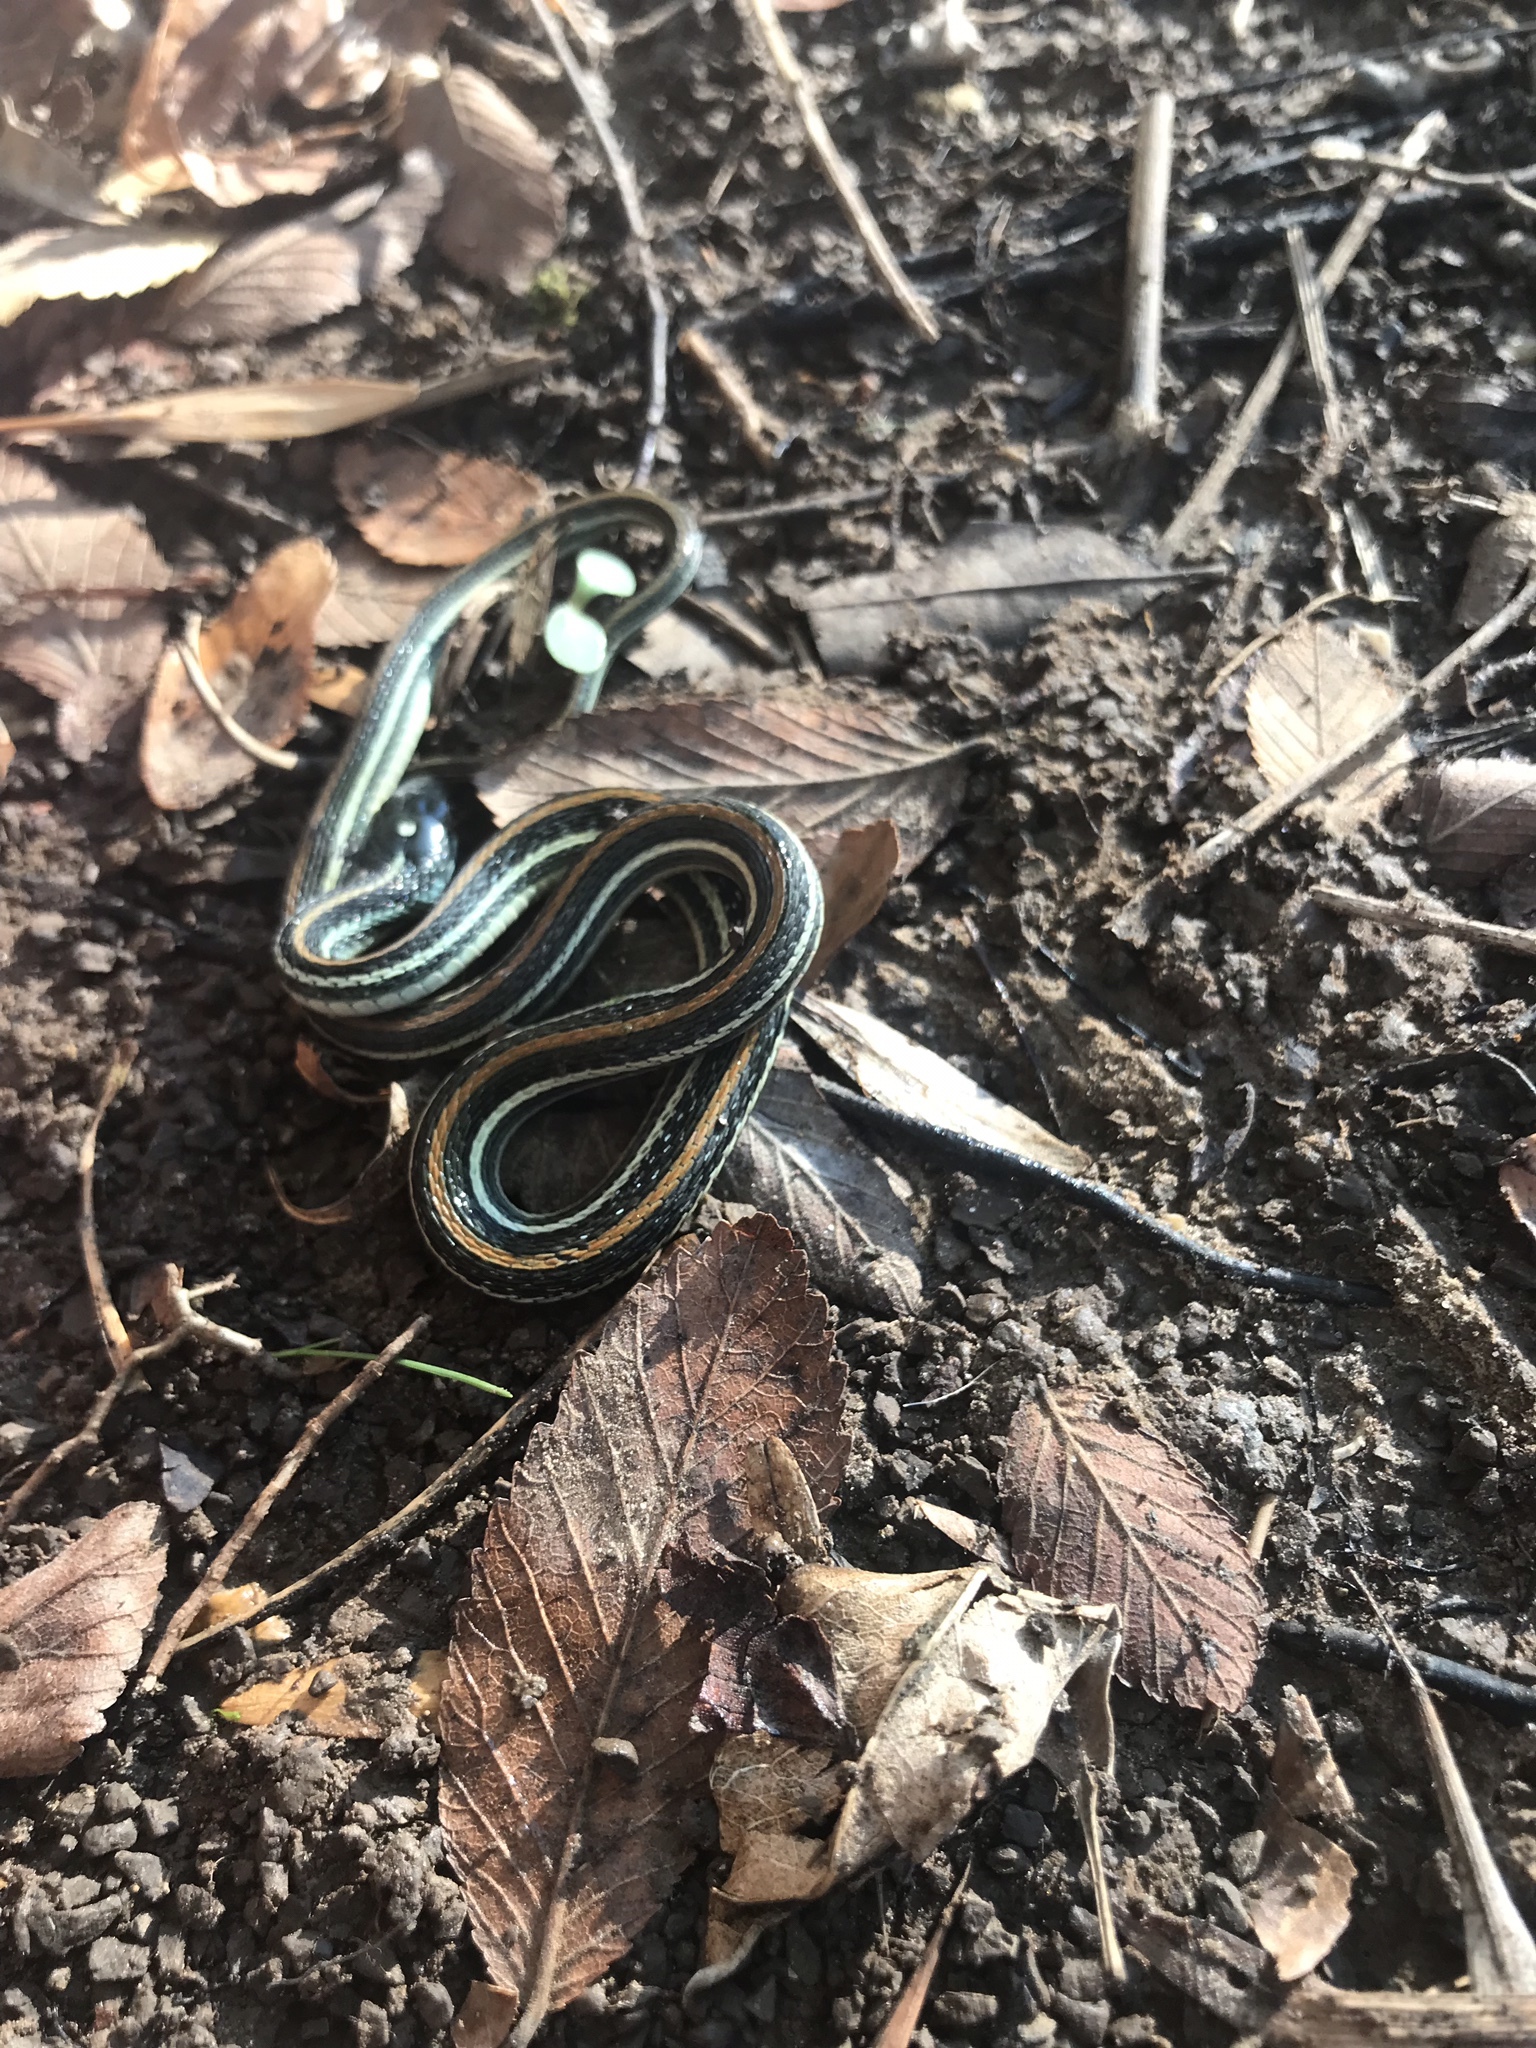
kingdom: Animalia
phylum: Chordata
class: Squamata
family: Colubridae
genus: Thamnophis
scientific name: Thamnophis proximus
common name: Western ribbon snake
